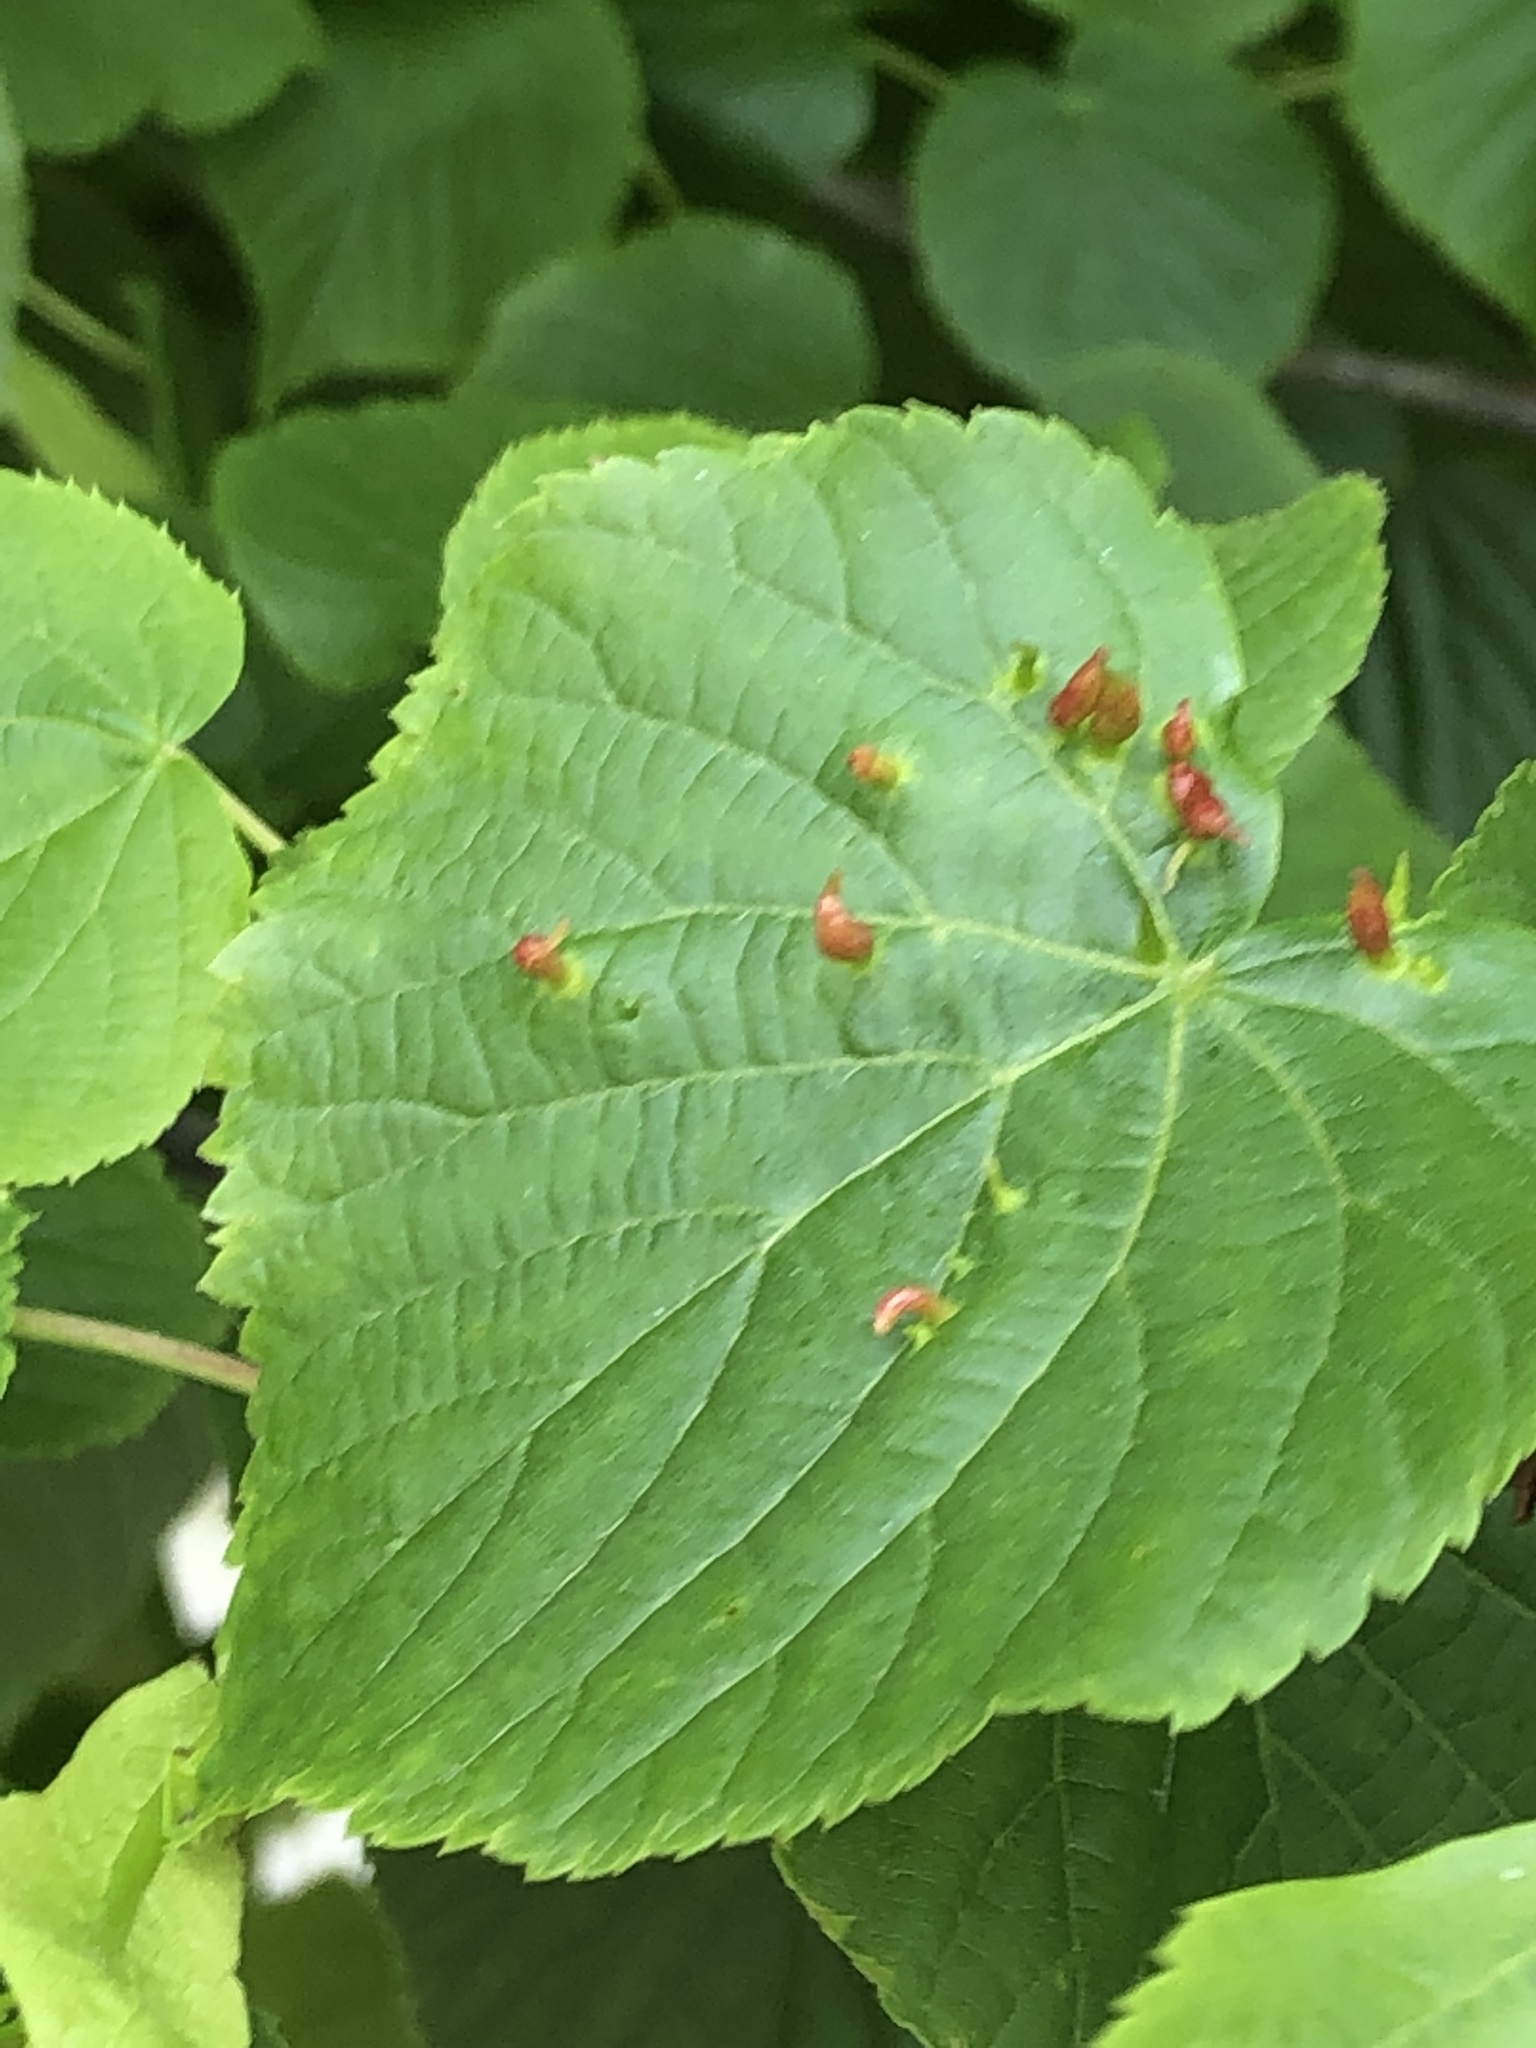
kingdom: Animalia
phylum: Arthropoda
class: Arachnida
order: Trombidiformes
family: Eriophyidae
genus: Eriophyes
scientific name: Eriophyes tiliae
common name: Red nail gall mite
